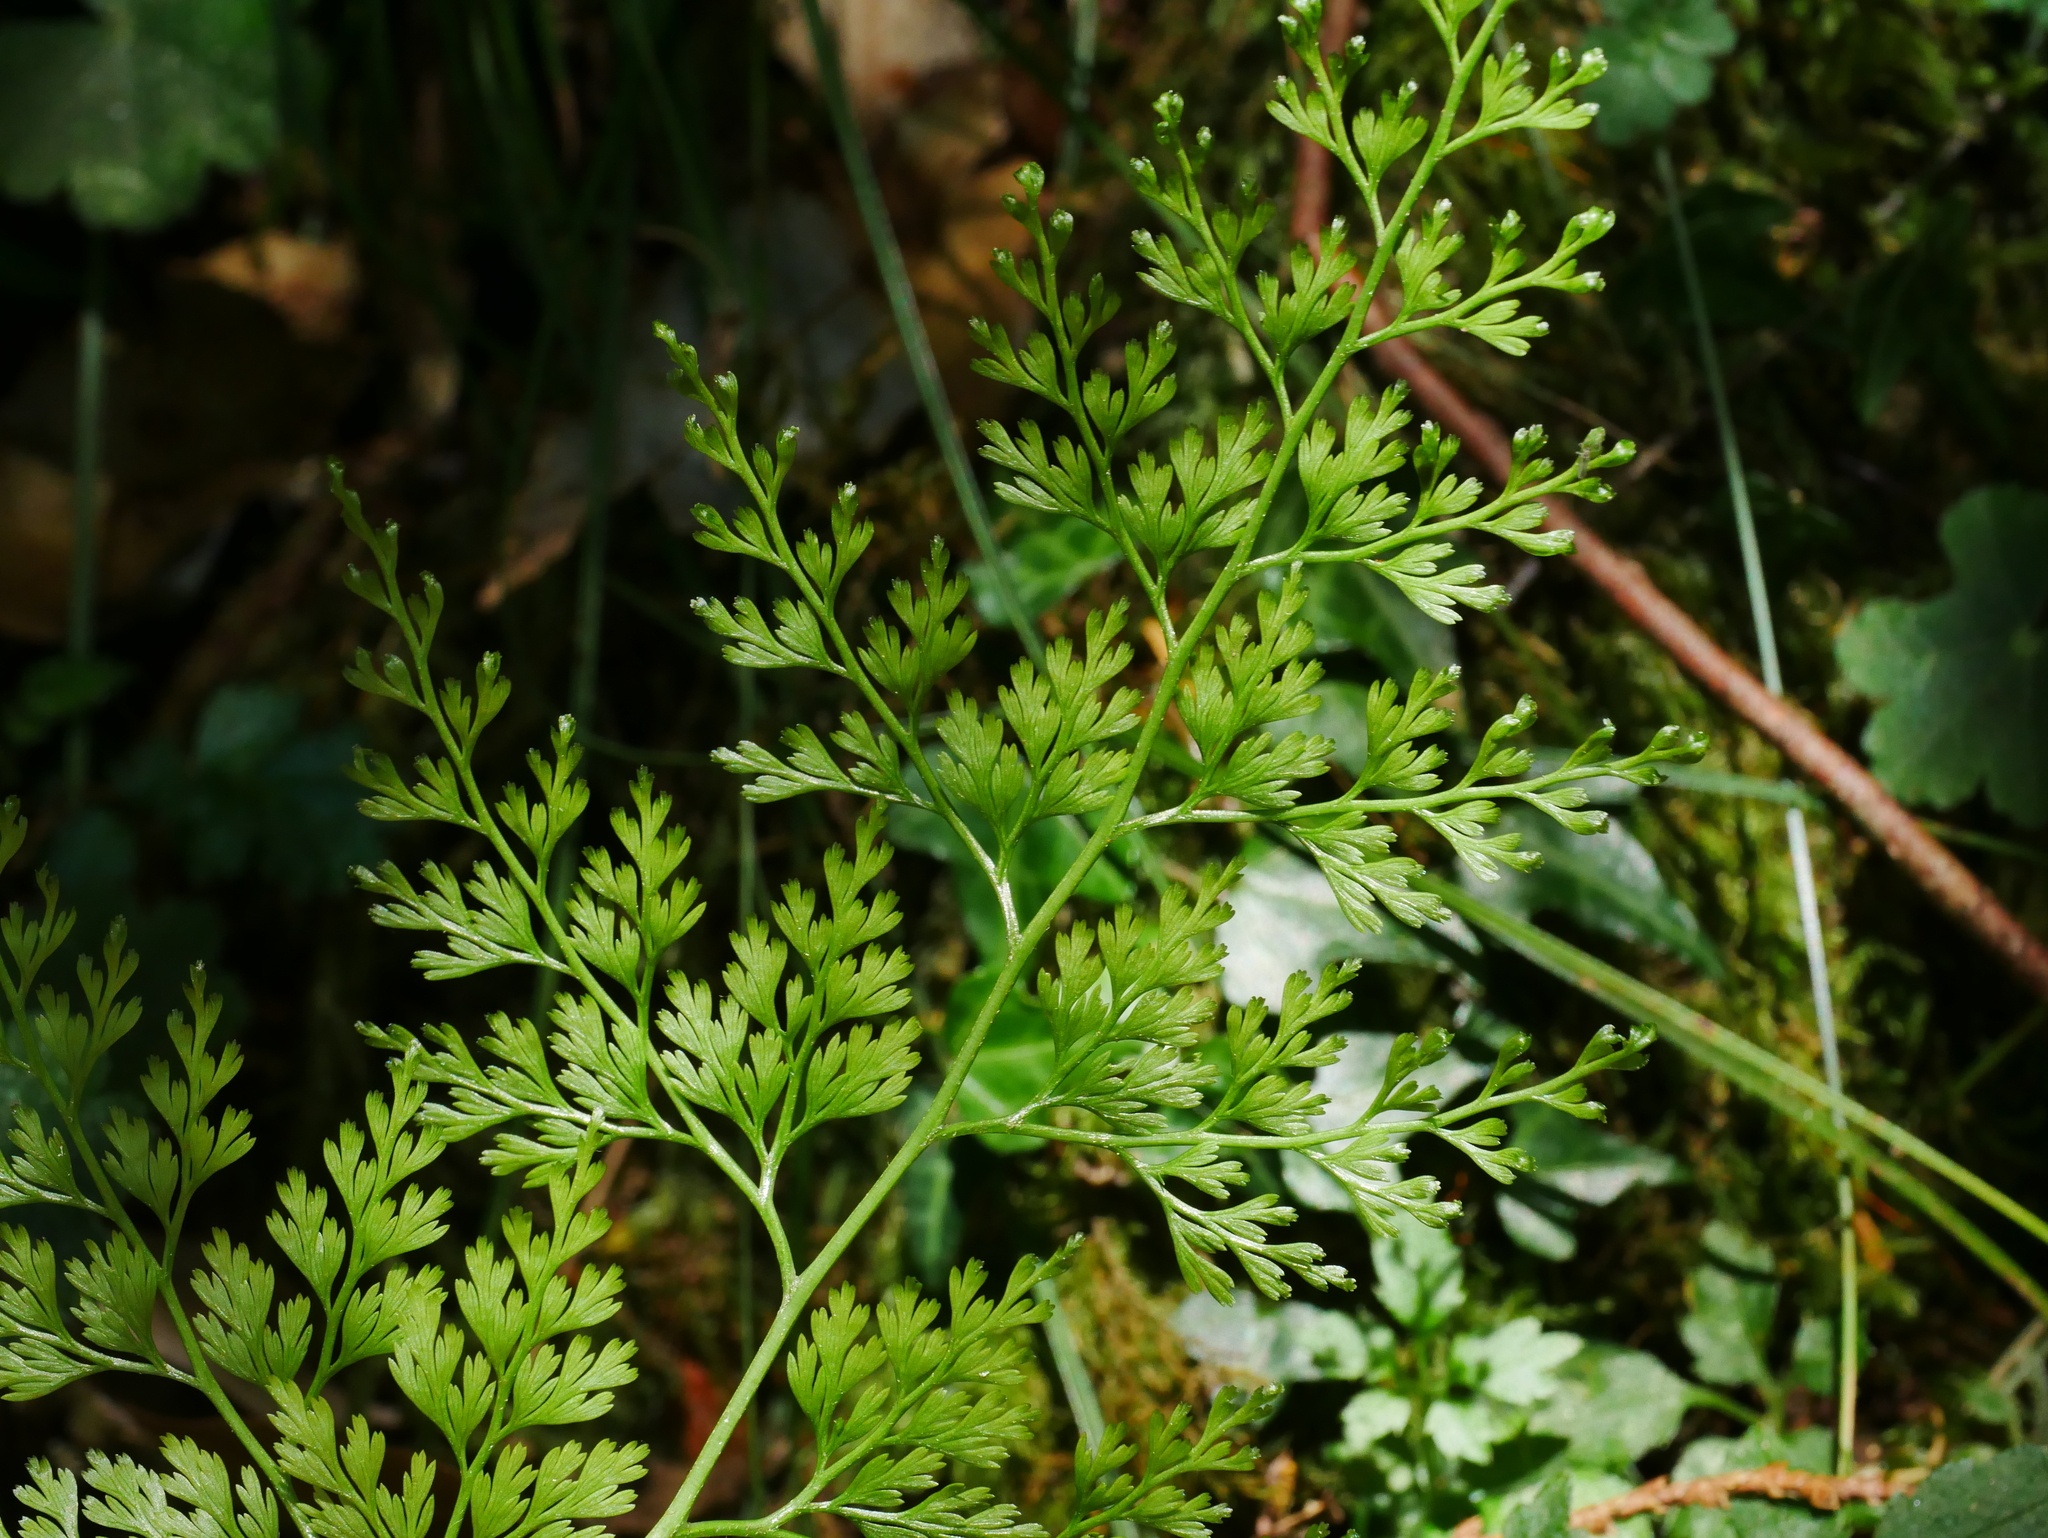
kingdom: Plantae
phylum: Tracheophyta
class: Polypodiopsida
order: Polypodiales
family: Pteridaceae
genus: Onychium
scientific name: Onychium lucidum
